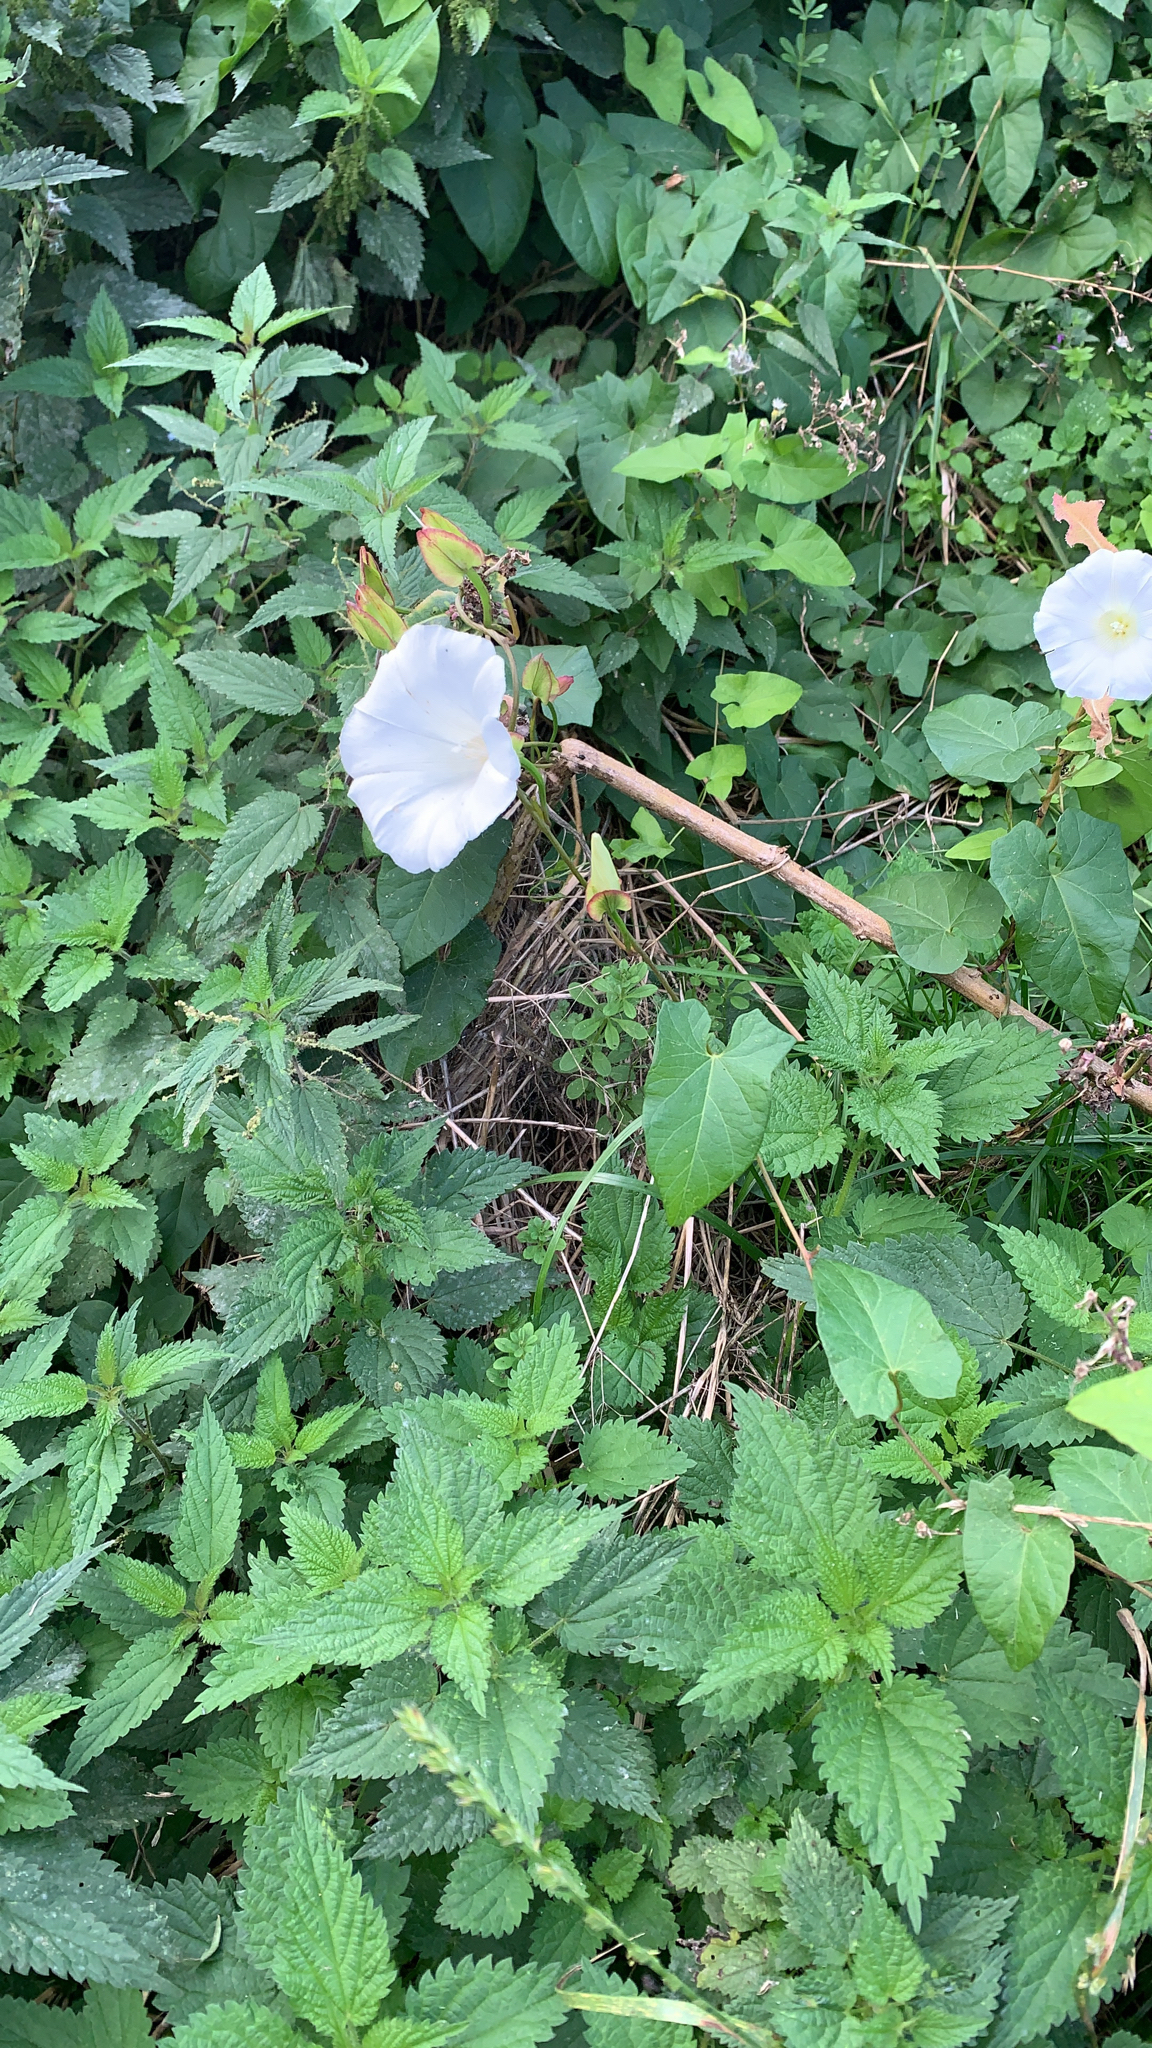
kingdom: Plantae
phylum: Tracheophyta
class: Magnoliopsida
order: Solanales
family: Convolvulaceae
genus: Calystegia
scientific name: Calystegia sepium
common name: Hedge bindweed
